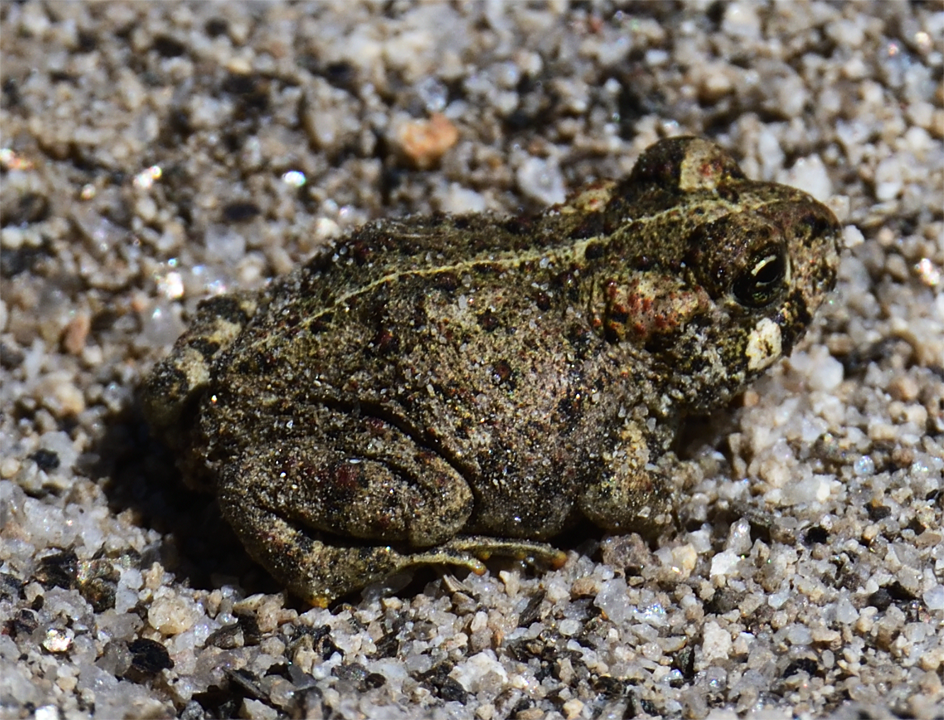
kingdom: Animalia
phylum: Chordata
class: Amphibia
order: Anura
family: Bufonidae
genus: Anaxyrus
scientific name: Anaxyrus boreas
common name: Western toad
